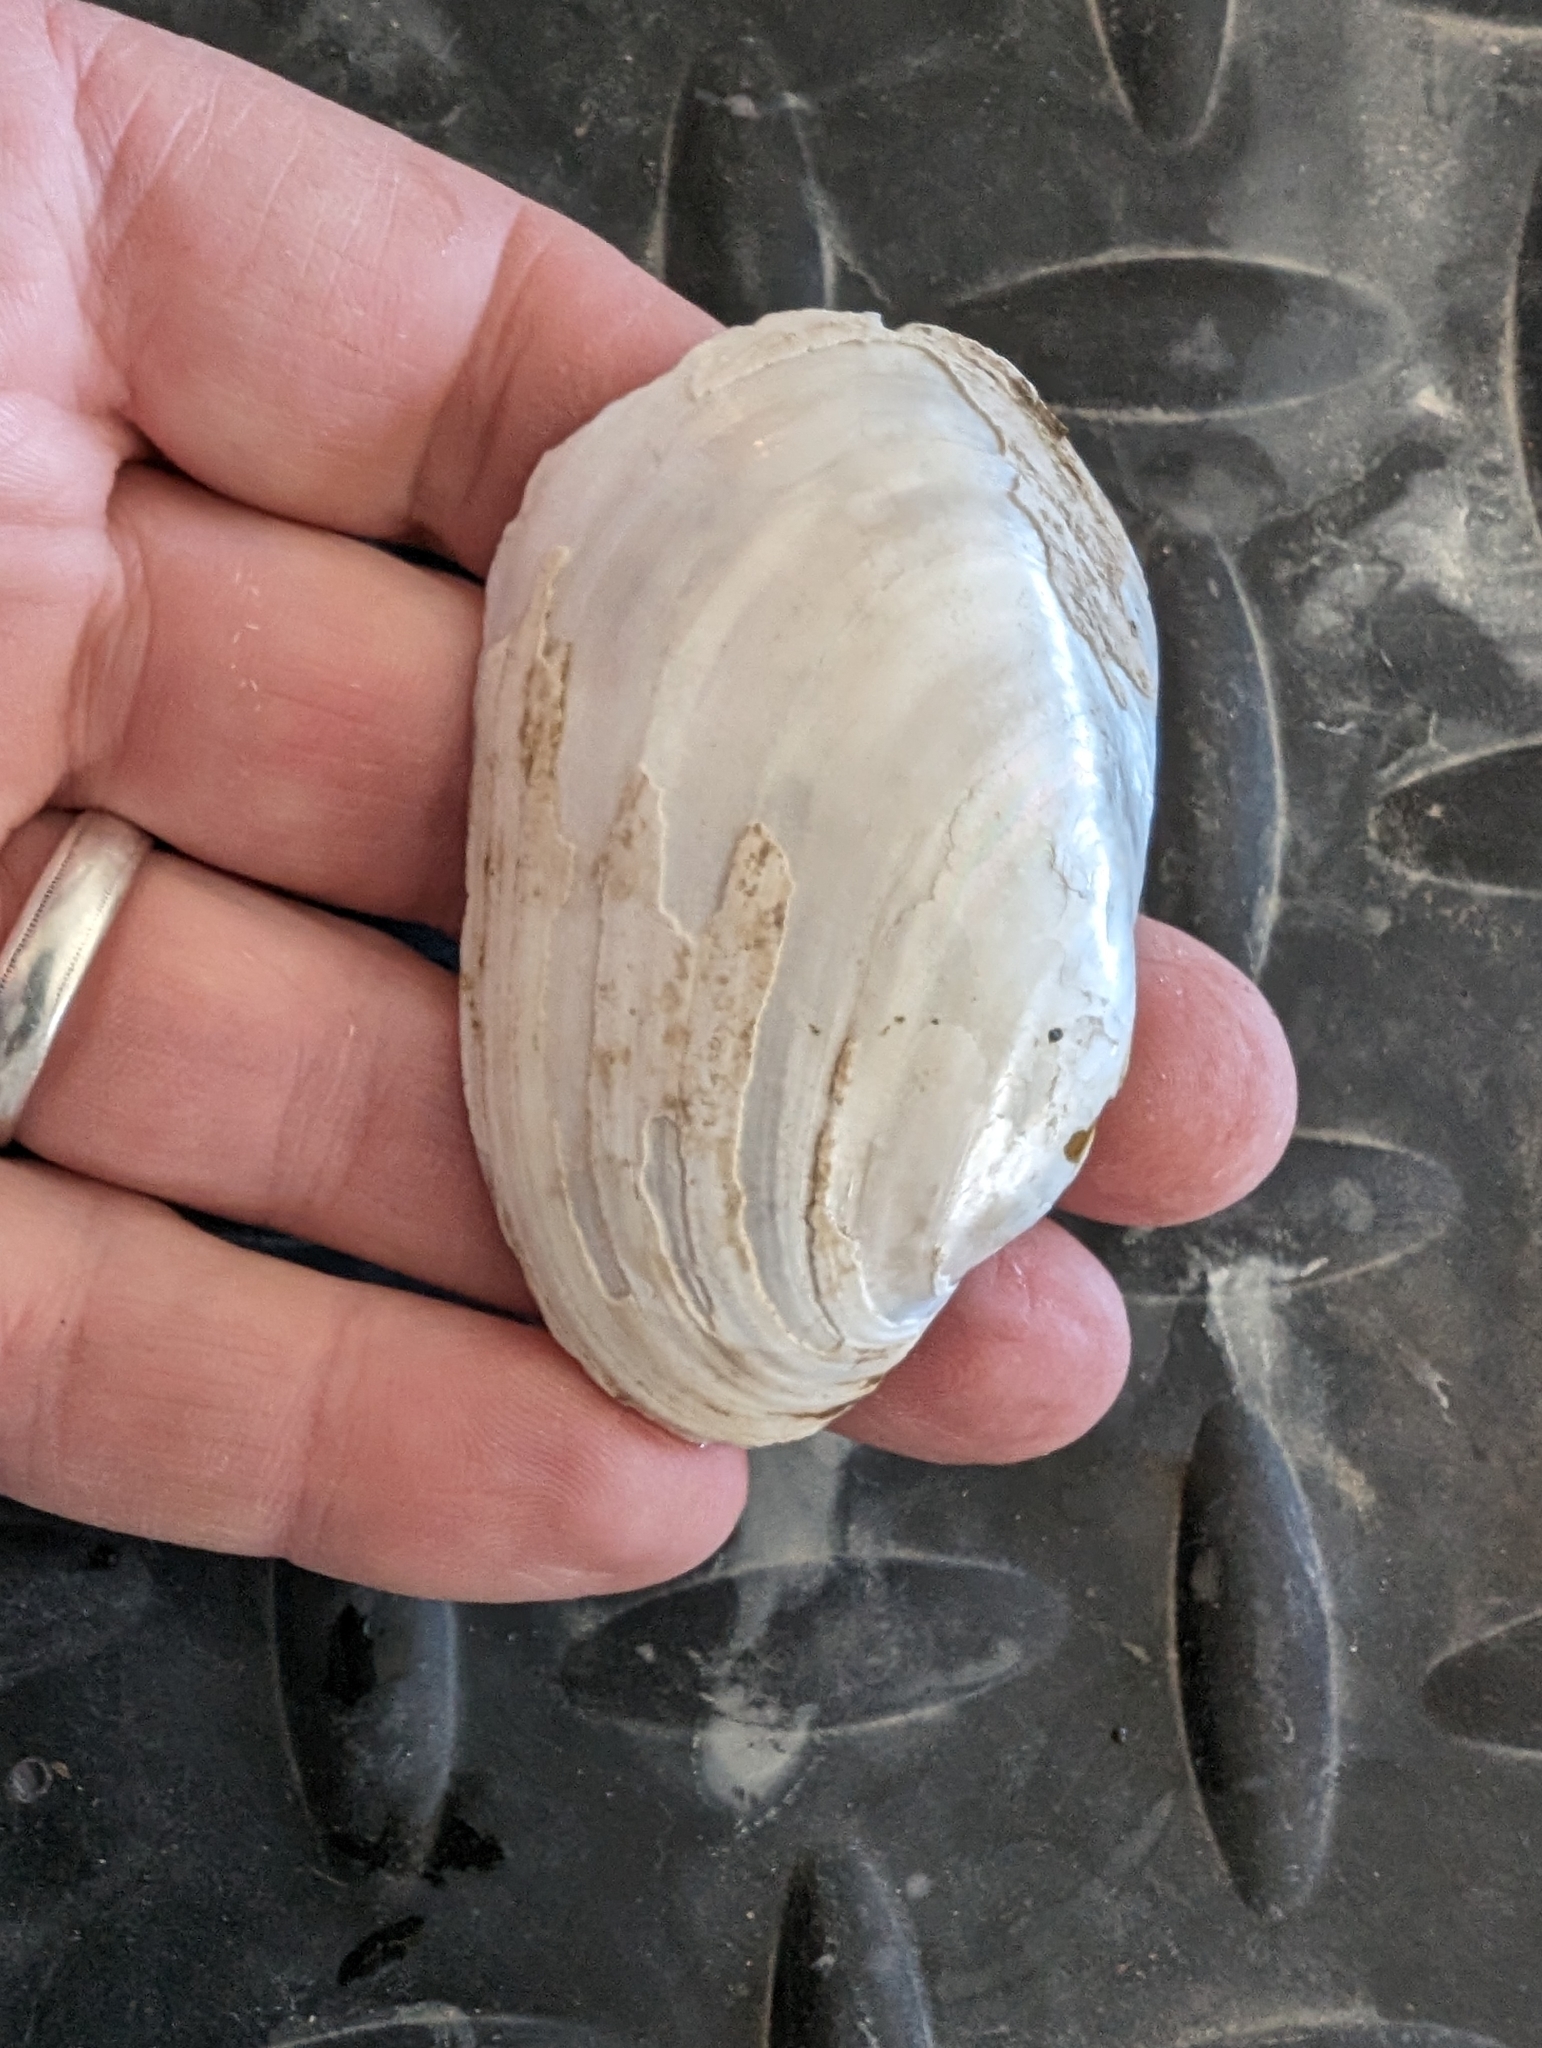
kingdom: Animalia
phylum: Mollusca
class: Bivalvia
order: Unionida
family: Unionidae
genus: Lampsilis
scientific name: Lampsilis siliquoidea
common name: Fatmucket
